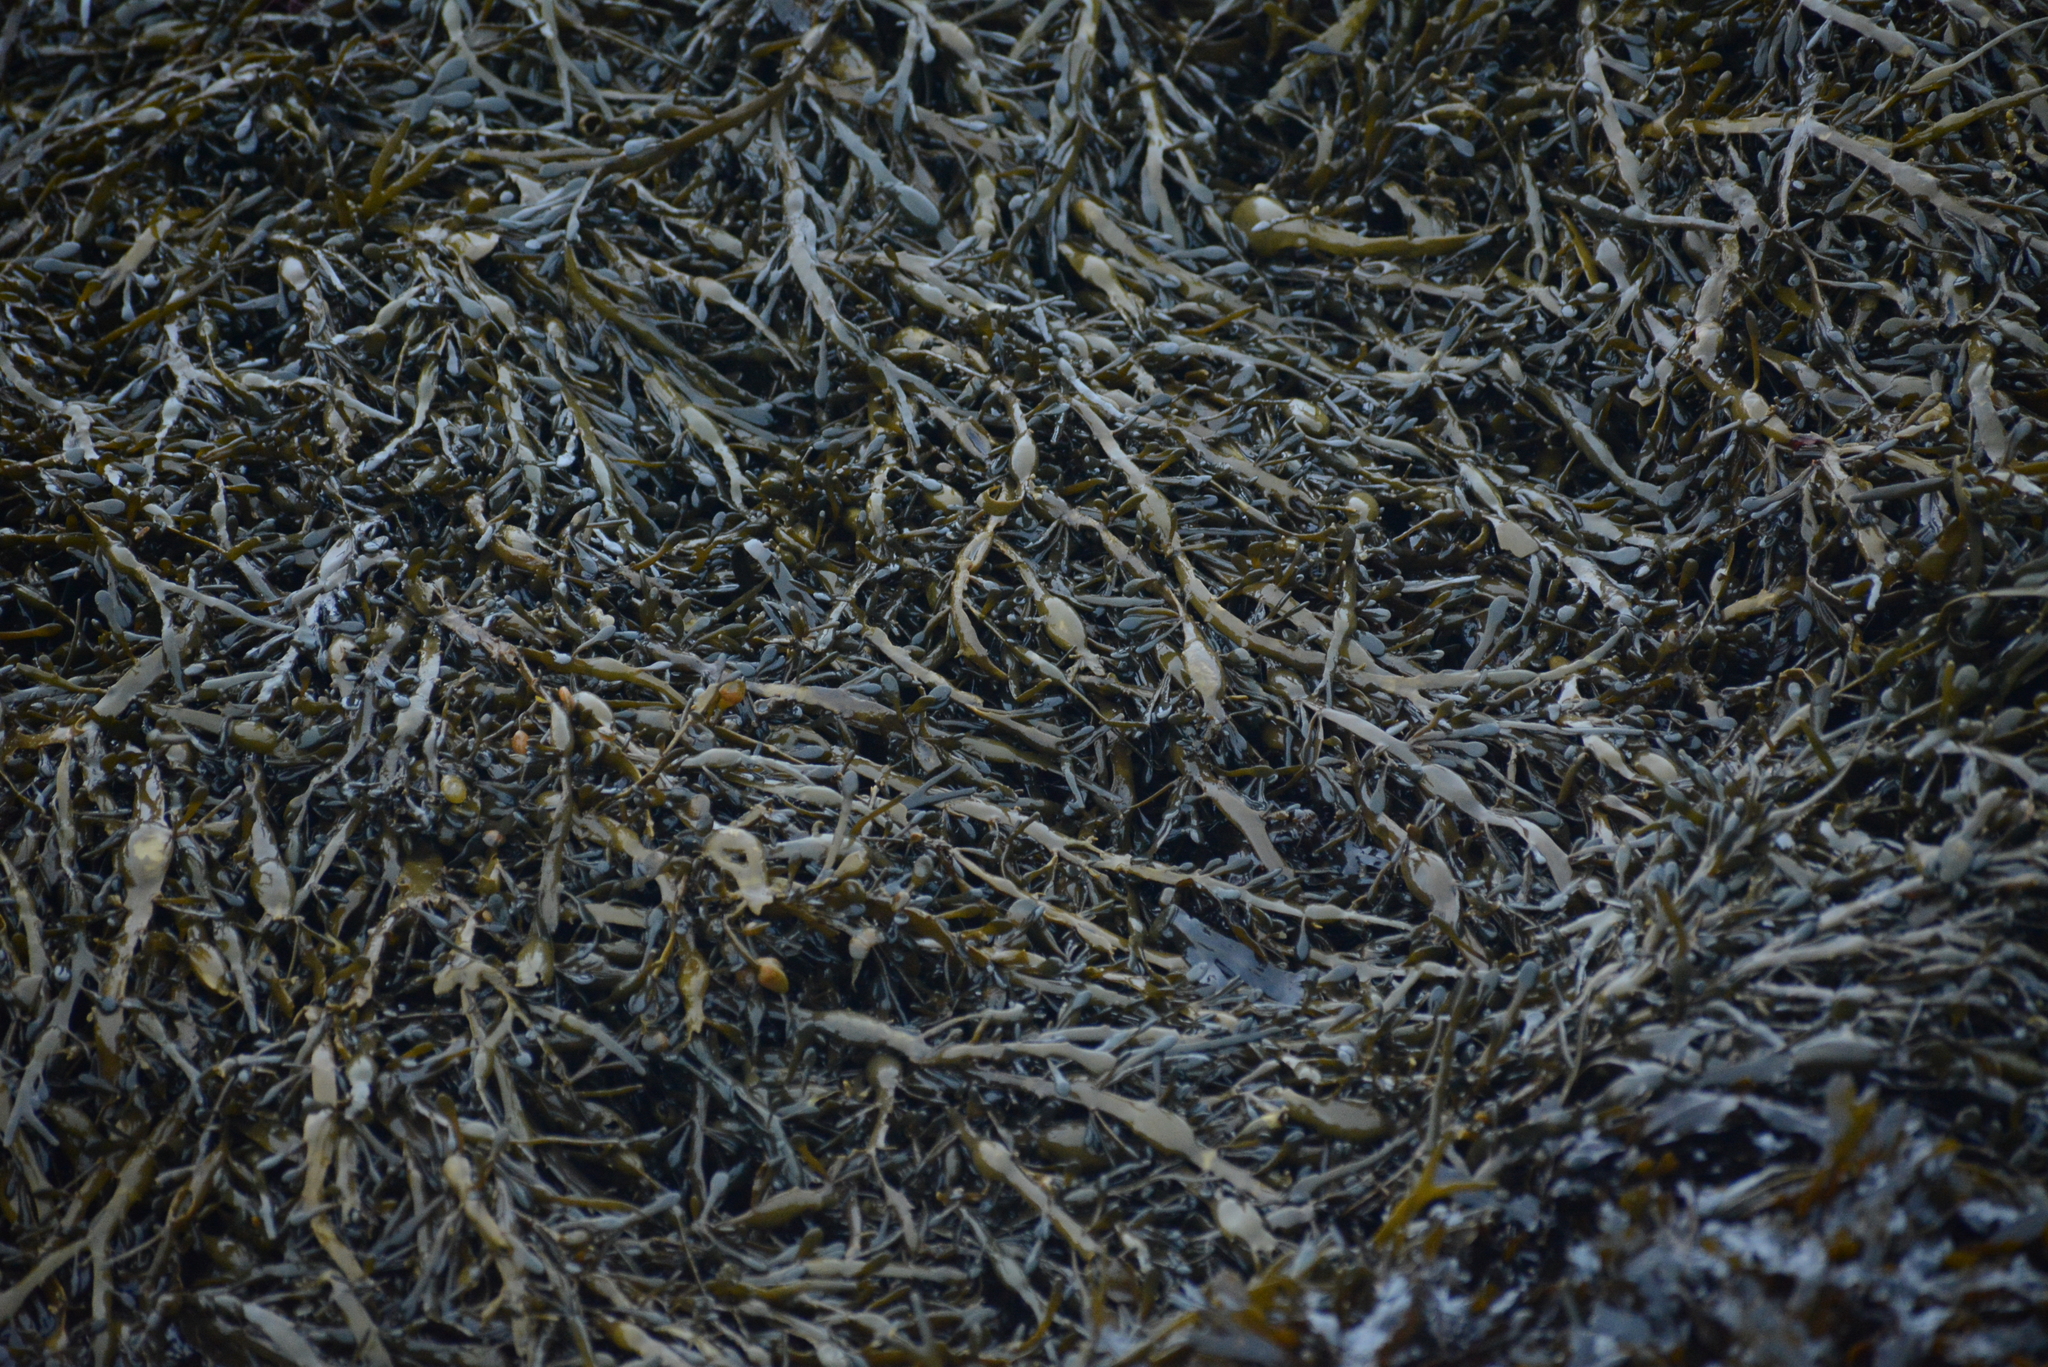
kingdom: Chromista
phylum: Ochrophyta
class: Phaeophyceae
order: Fucales
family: Fucaceae
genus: Ascophyllum
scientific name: Ascophyllum nodosum
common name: Knotted wrack
